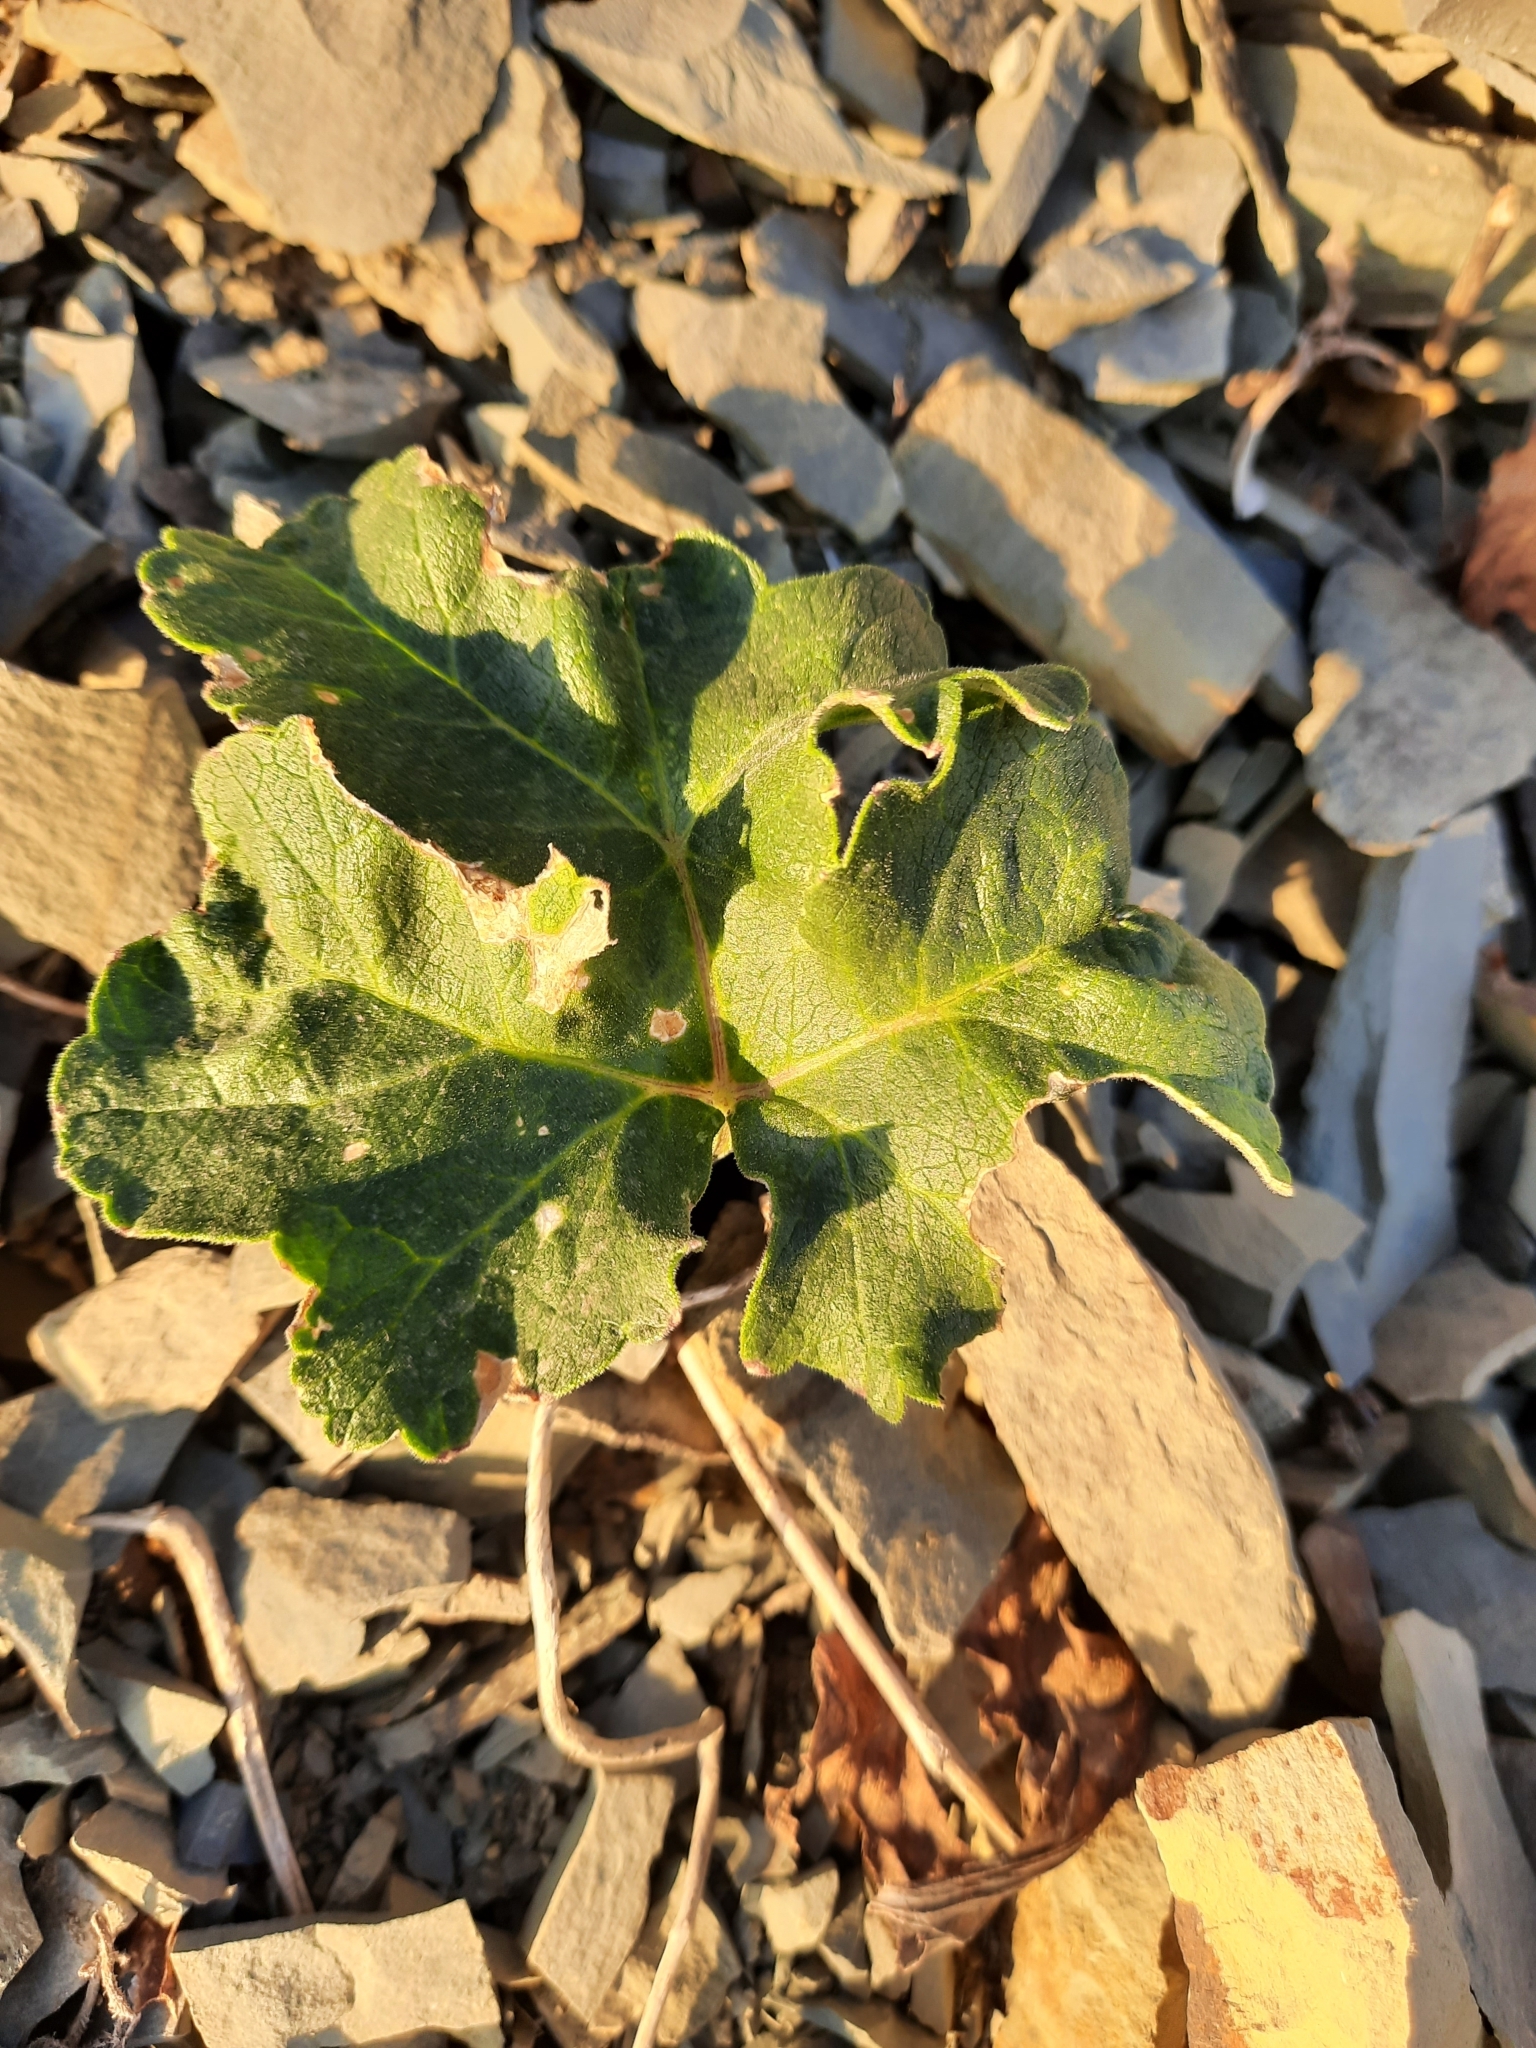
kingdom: Plantae
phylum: Tracheophyta
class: Magnoliopsida
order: Apiales
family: Apiaceae
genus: Heracleum
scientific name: Heracleum stevenii
